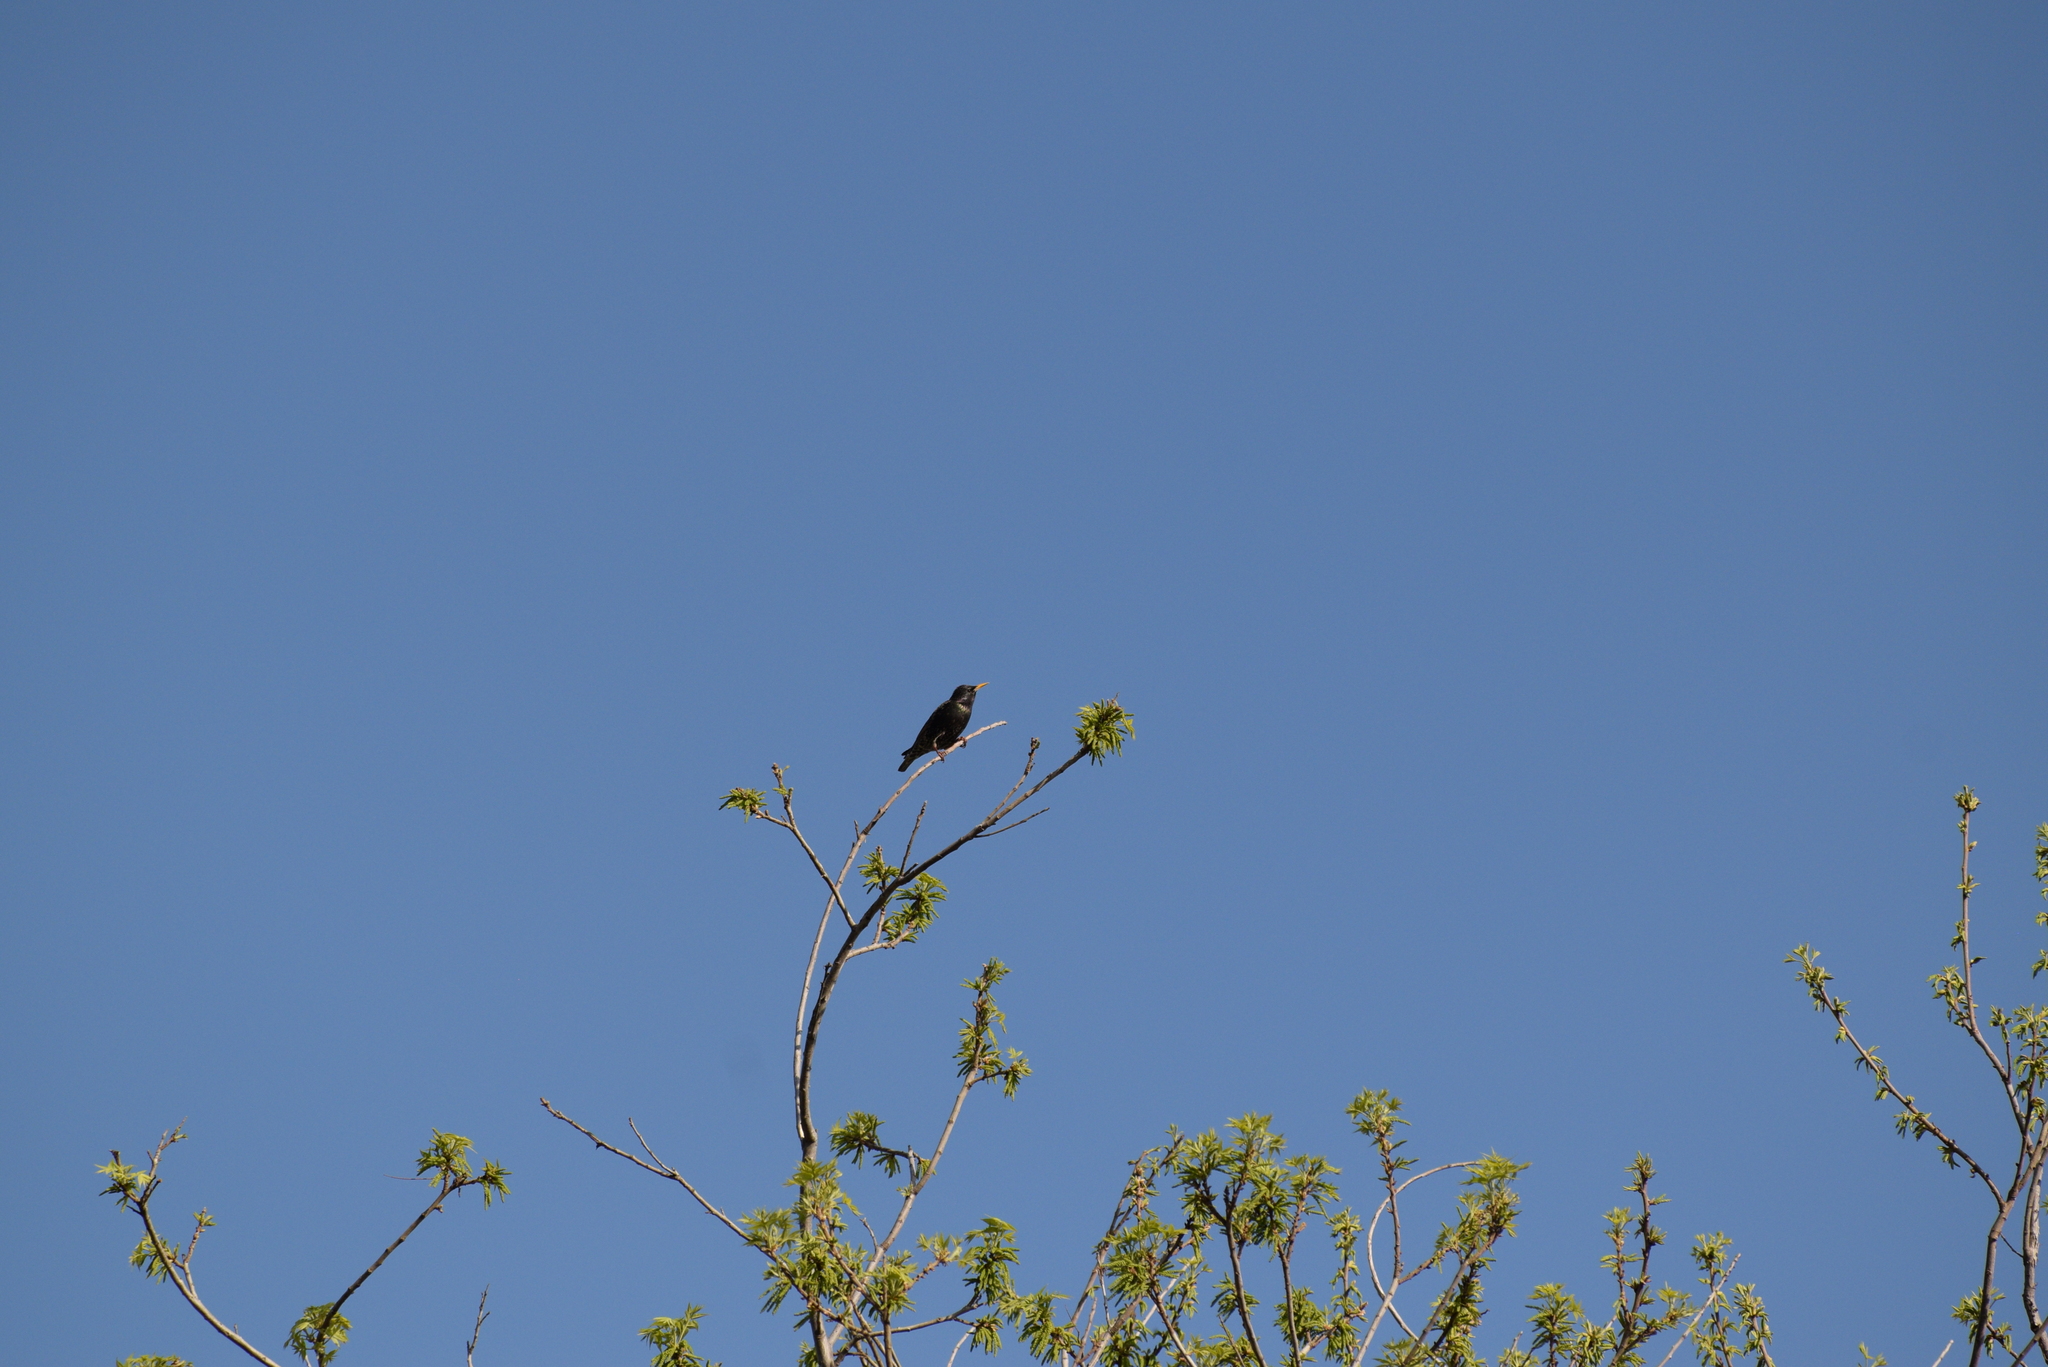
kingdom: Animalia
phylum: Chordata
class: Aves
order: Passeriformes
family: Sturnidae
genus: Sturnus
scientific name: Sturnus vulgaris
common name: Common starling
